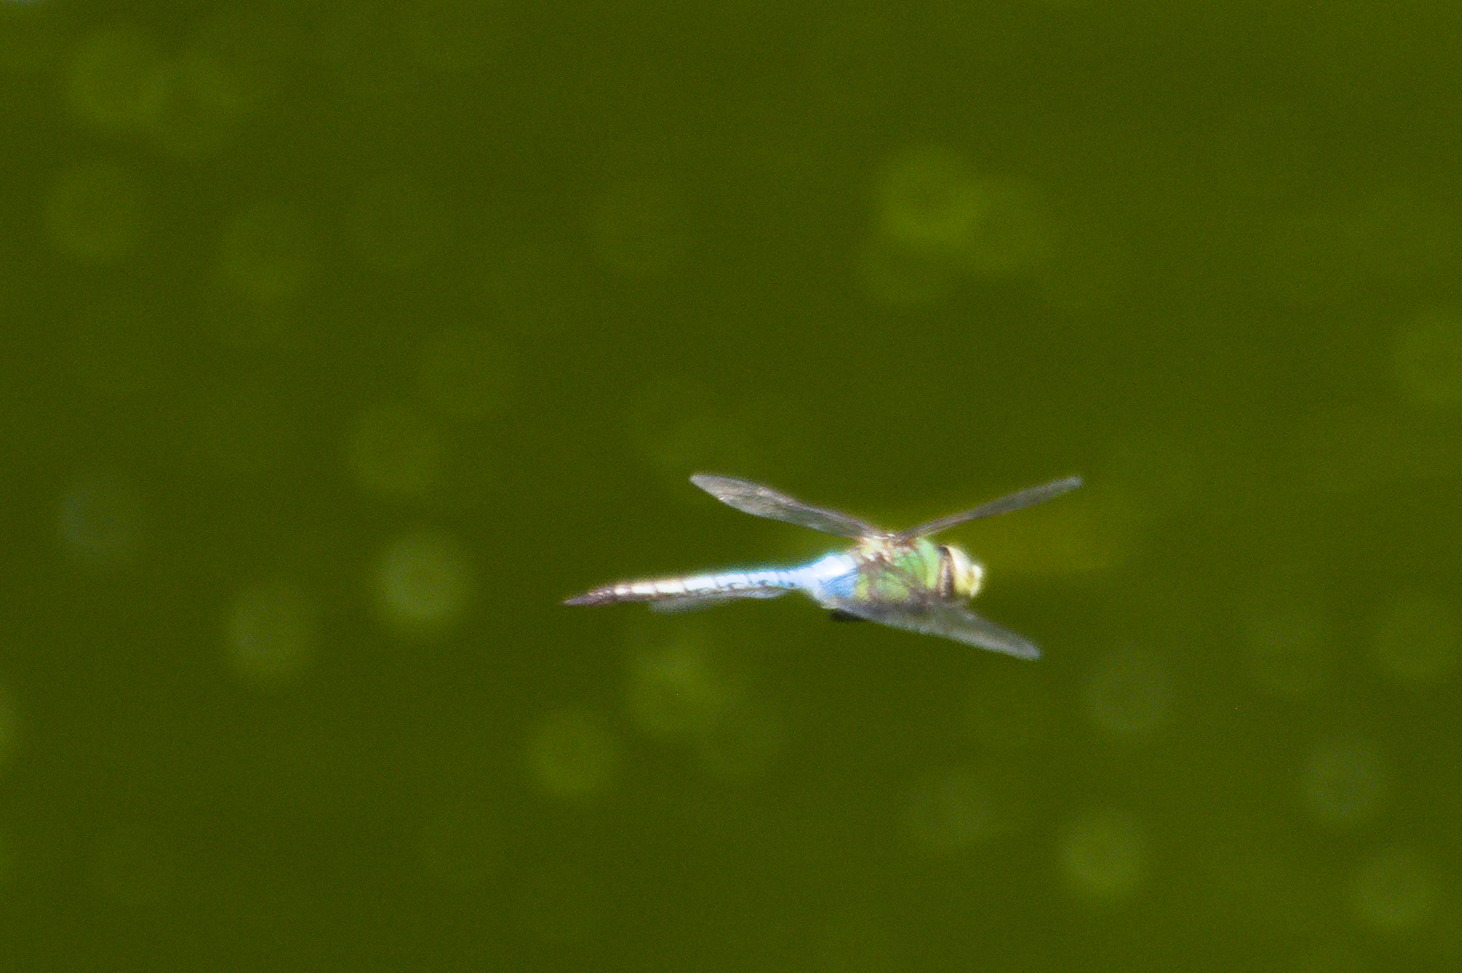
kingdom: Animalia
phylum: Arthropoda
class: Insecta
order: Odonata
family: Aeshnidae
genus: Anax
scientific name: Anax junius
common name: Common green darner
